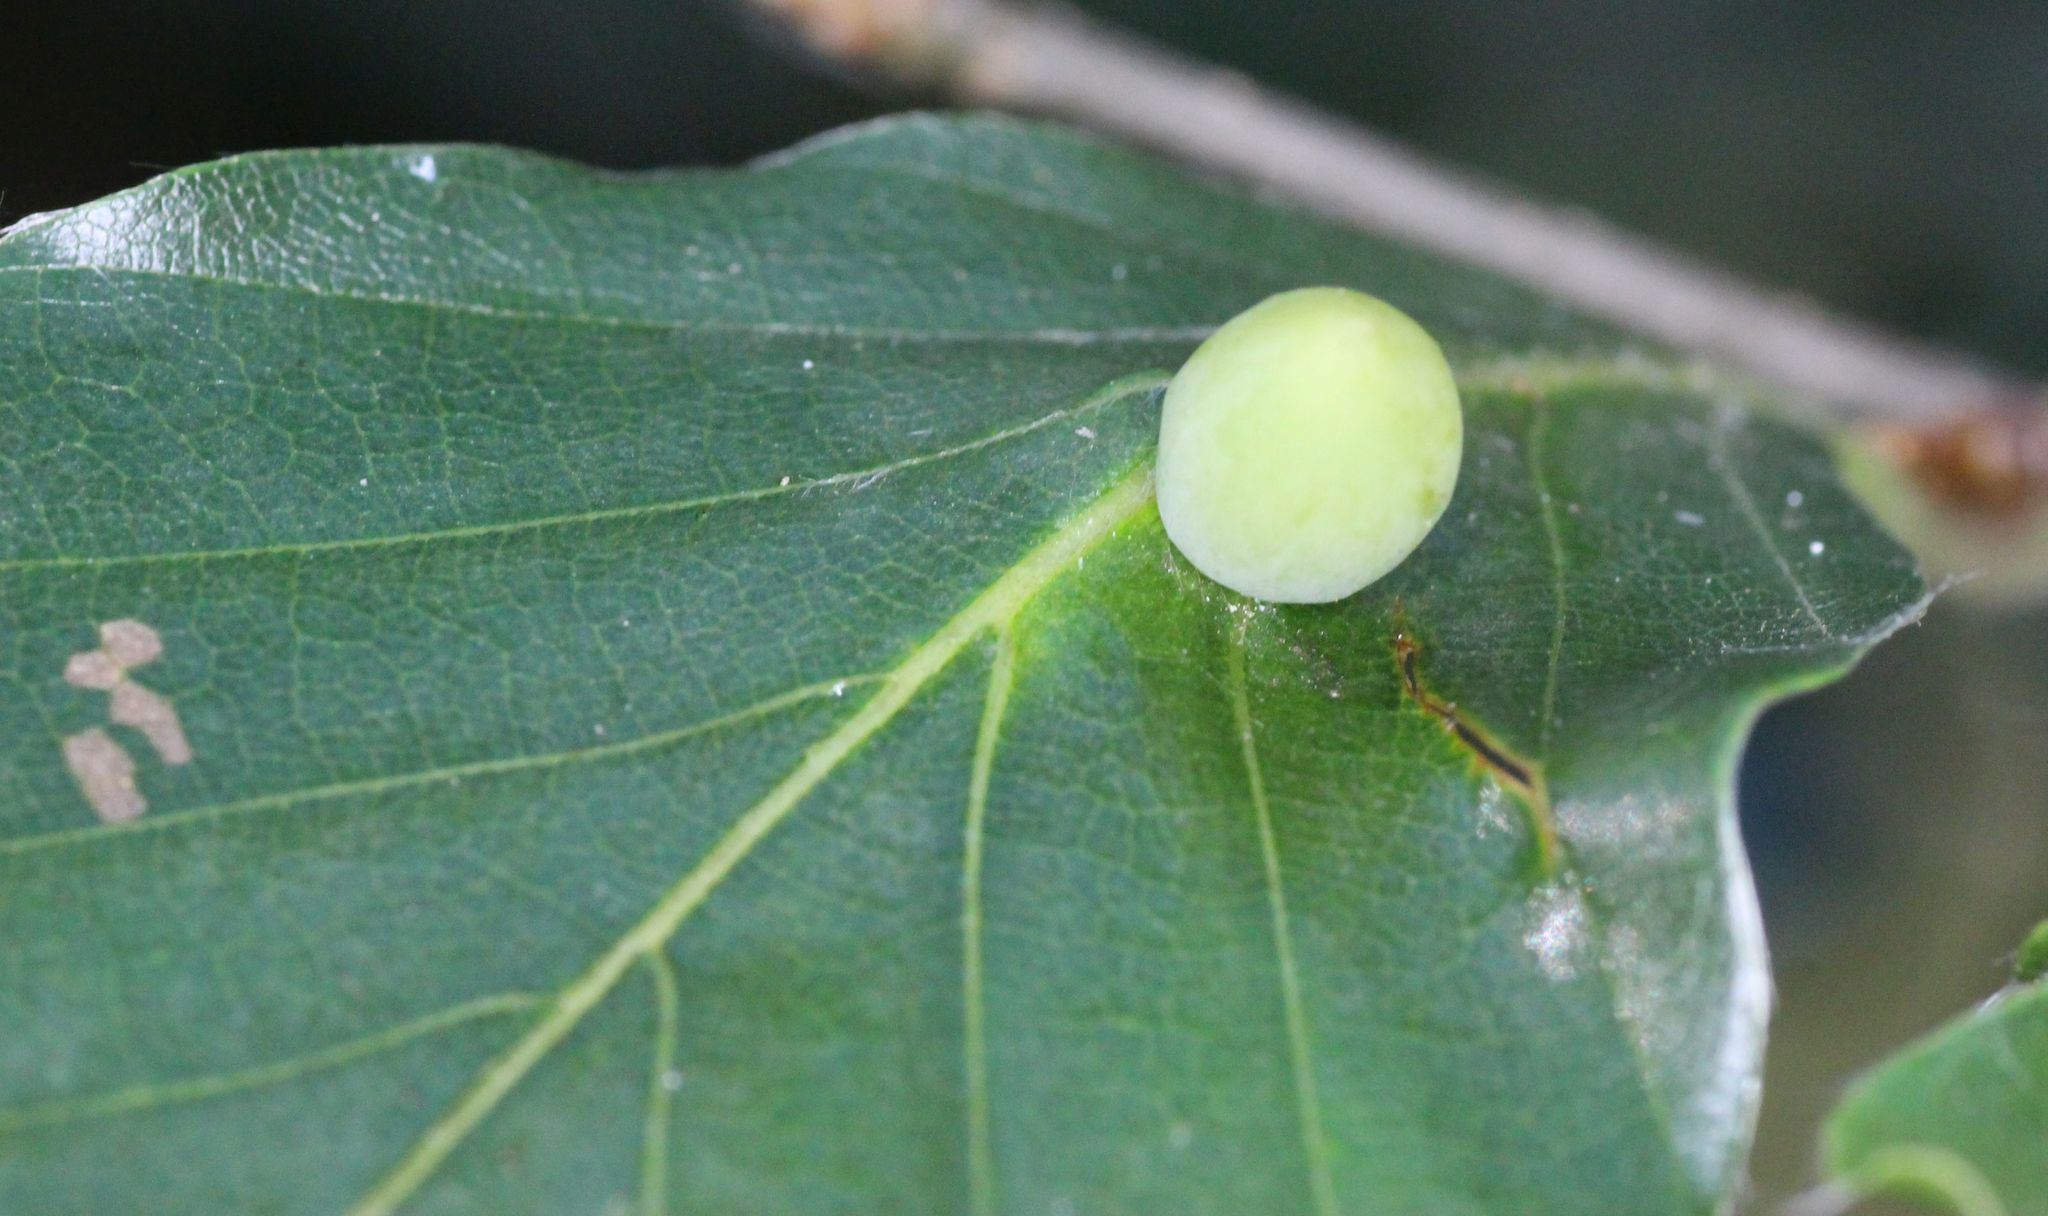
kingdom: Animalia
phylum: Arthropoda
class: Insecta
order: Diptera
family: Cecidomyiidae
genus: Mikiola
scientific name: Mikiola fagi
